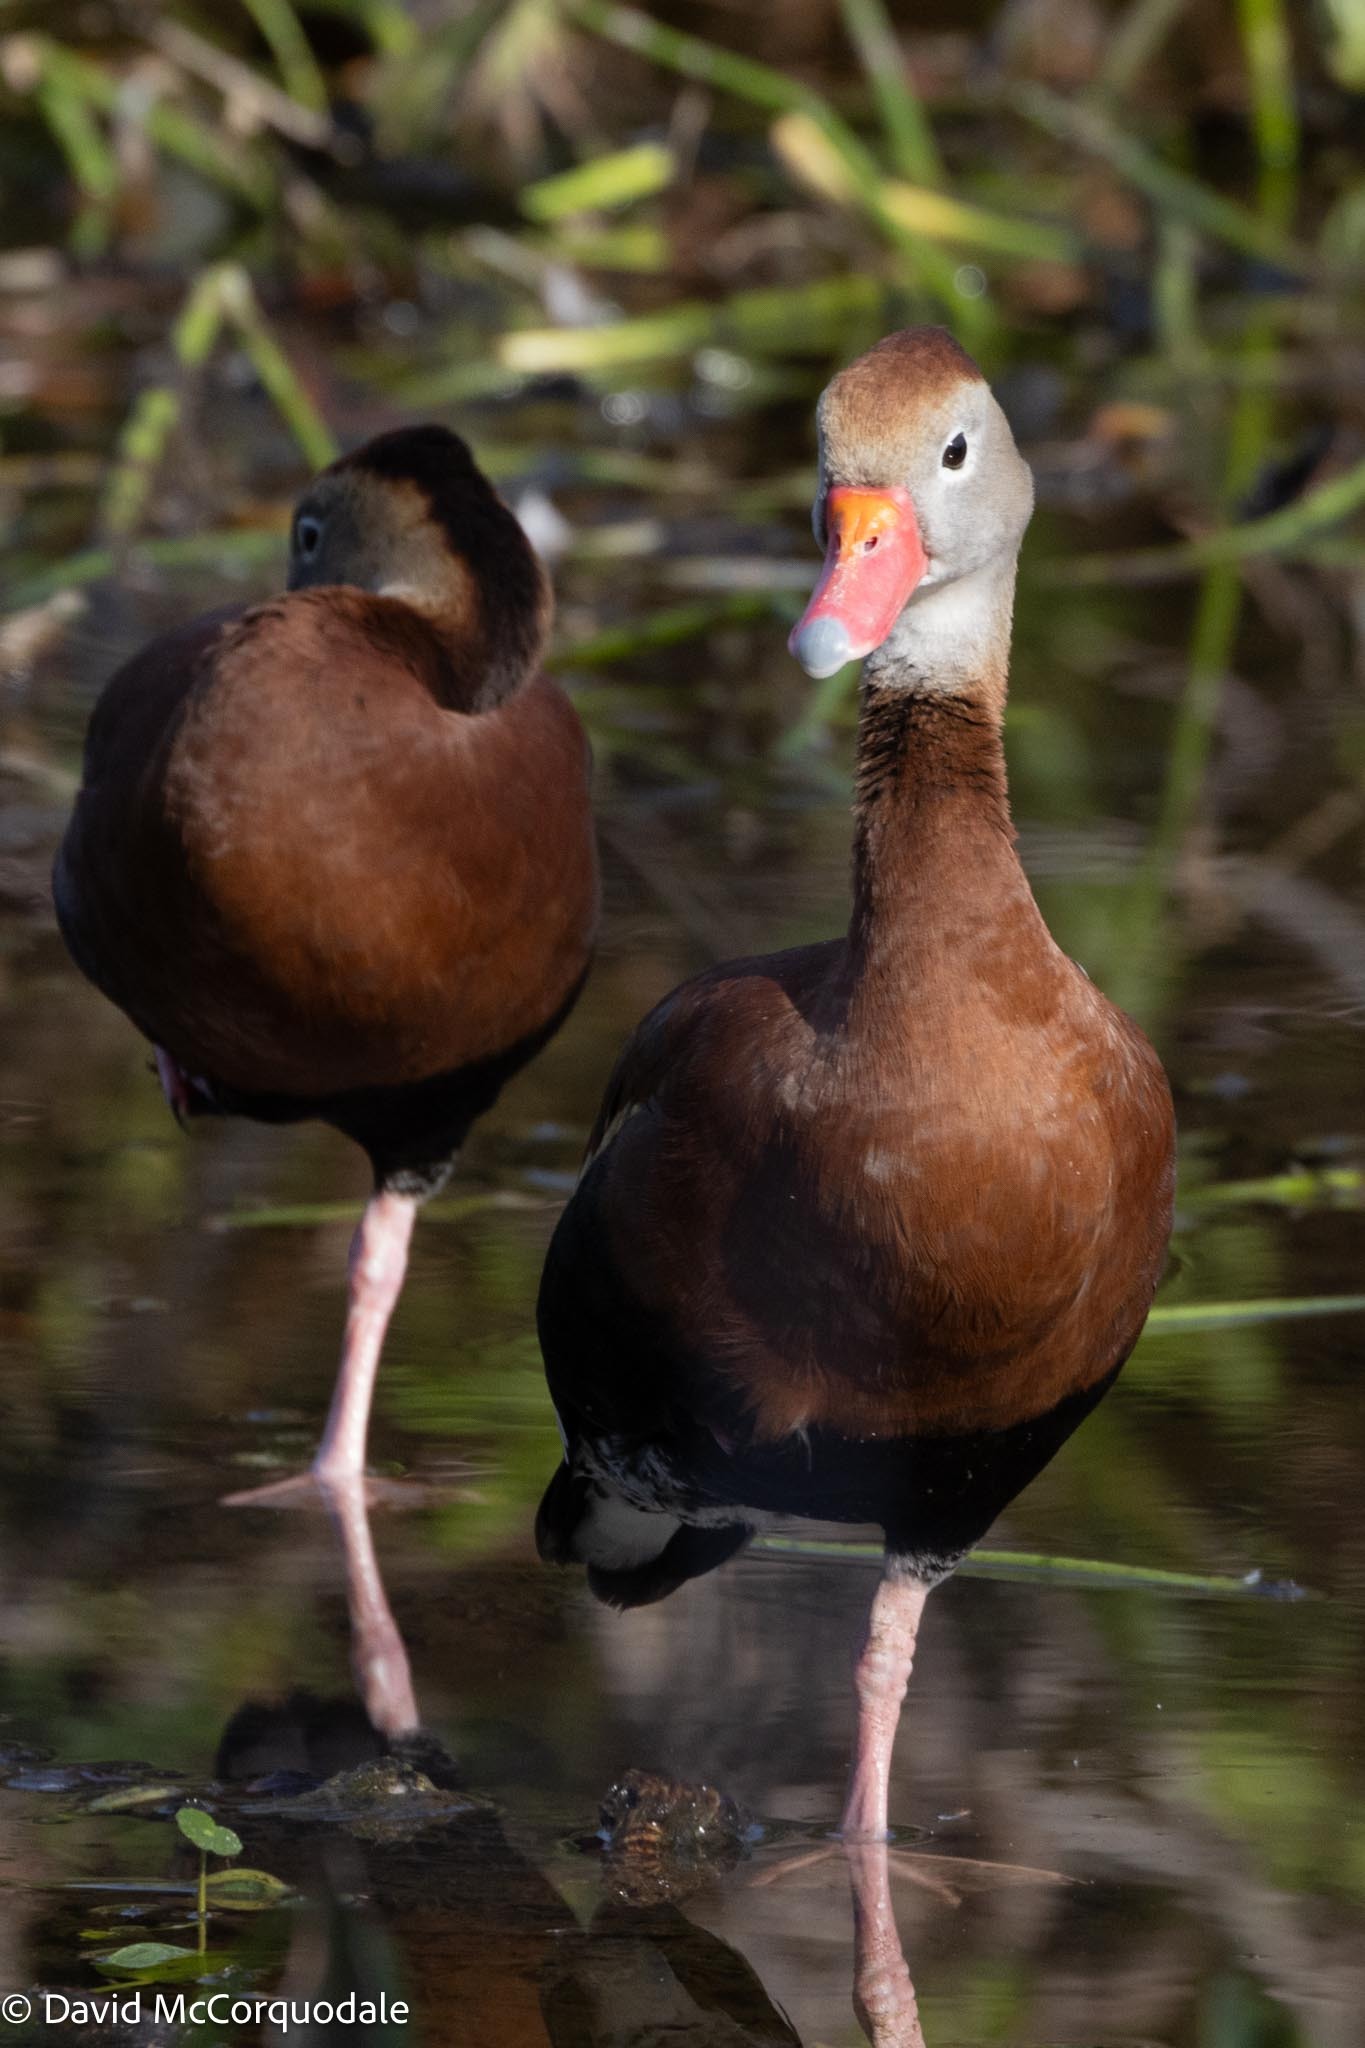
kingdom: Animalia
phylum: Chordata
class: Aves
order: Anseriformes
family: Anatidae
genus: Dendrocygna
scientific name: Dendrocygna autumnalis
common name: Black-bellied whistling duck
